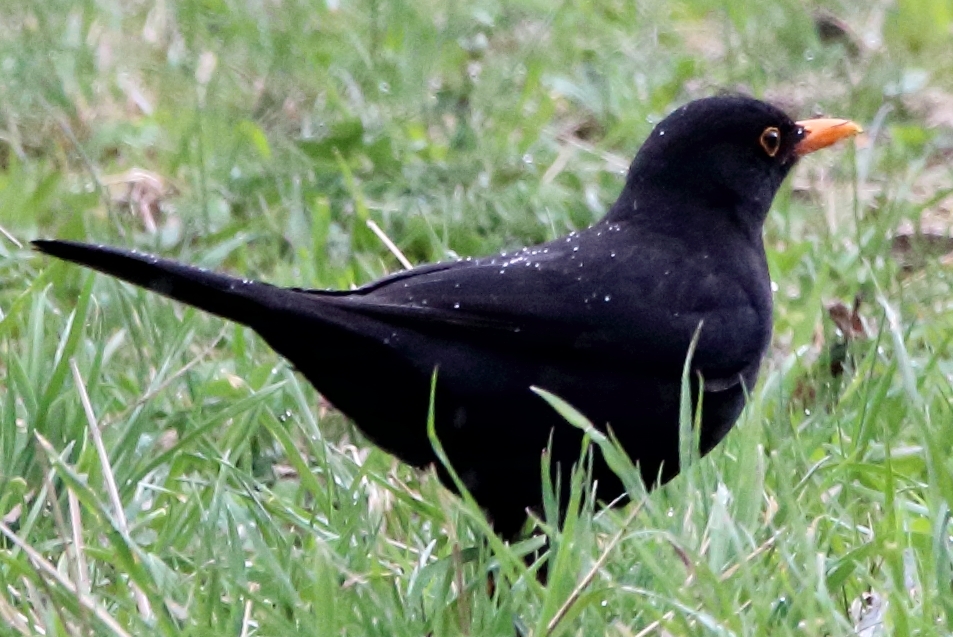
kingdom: Animalia
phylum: Chordata
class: Aves
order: Passeriformes
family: Turdidae
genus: Turdus
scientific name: Turdus merula
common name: Common blackbird
